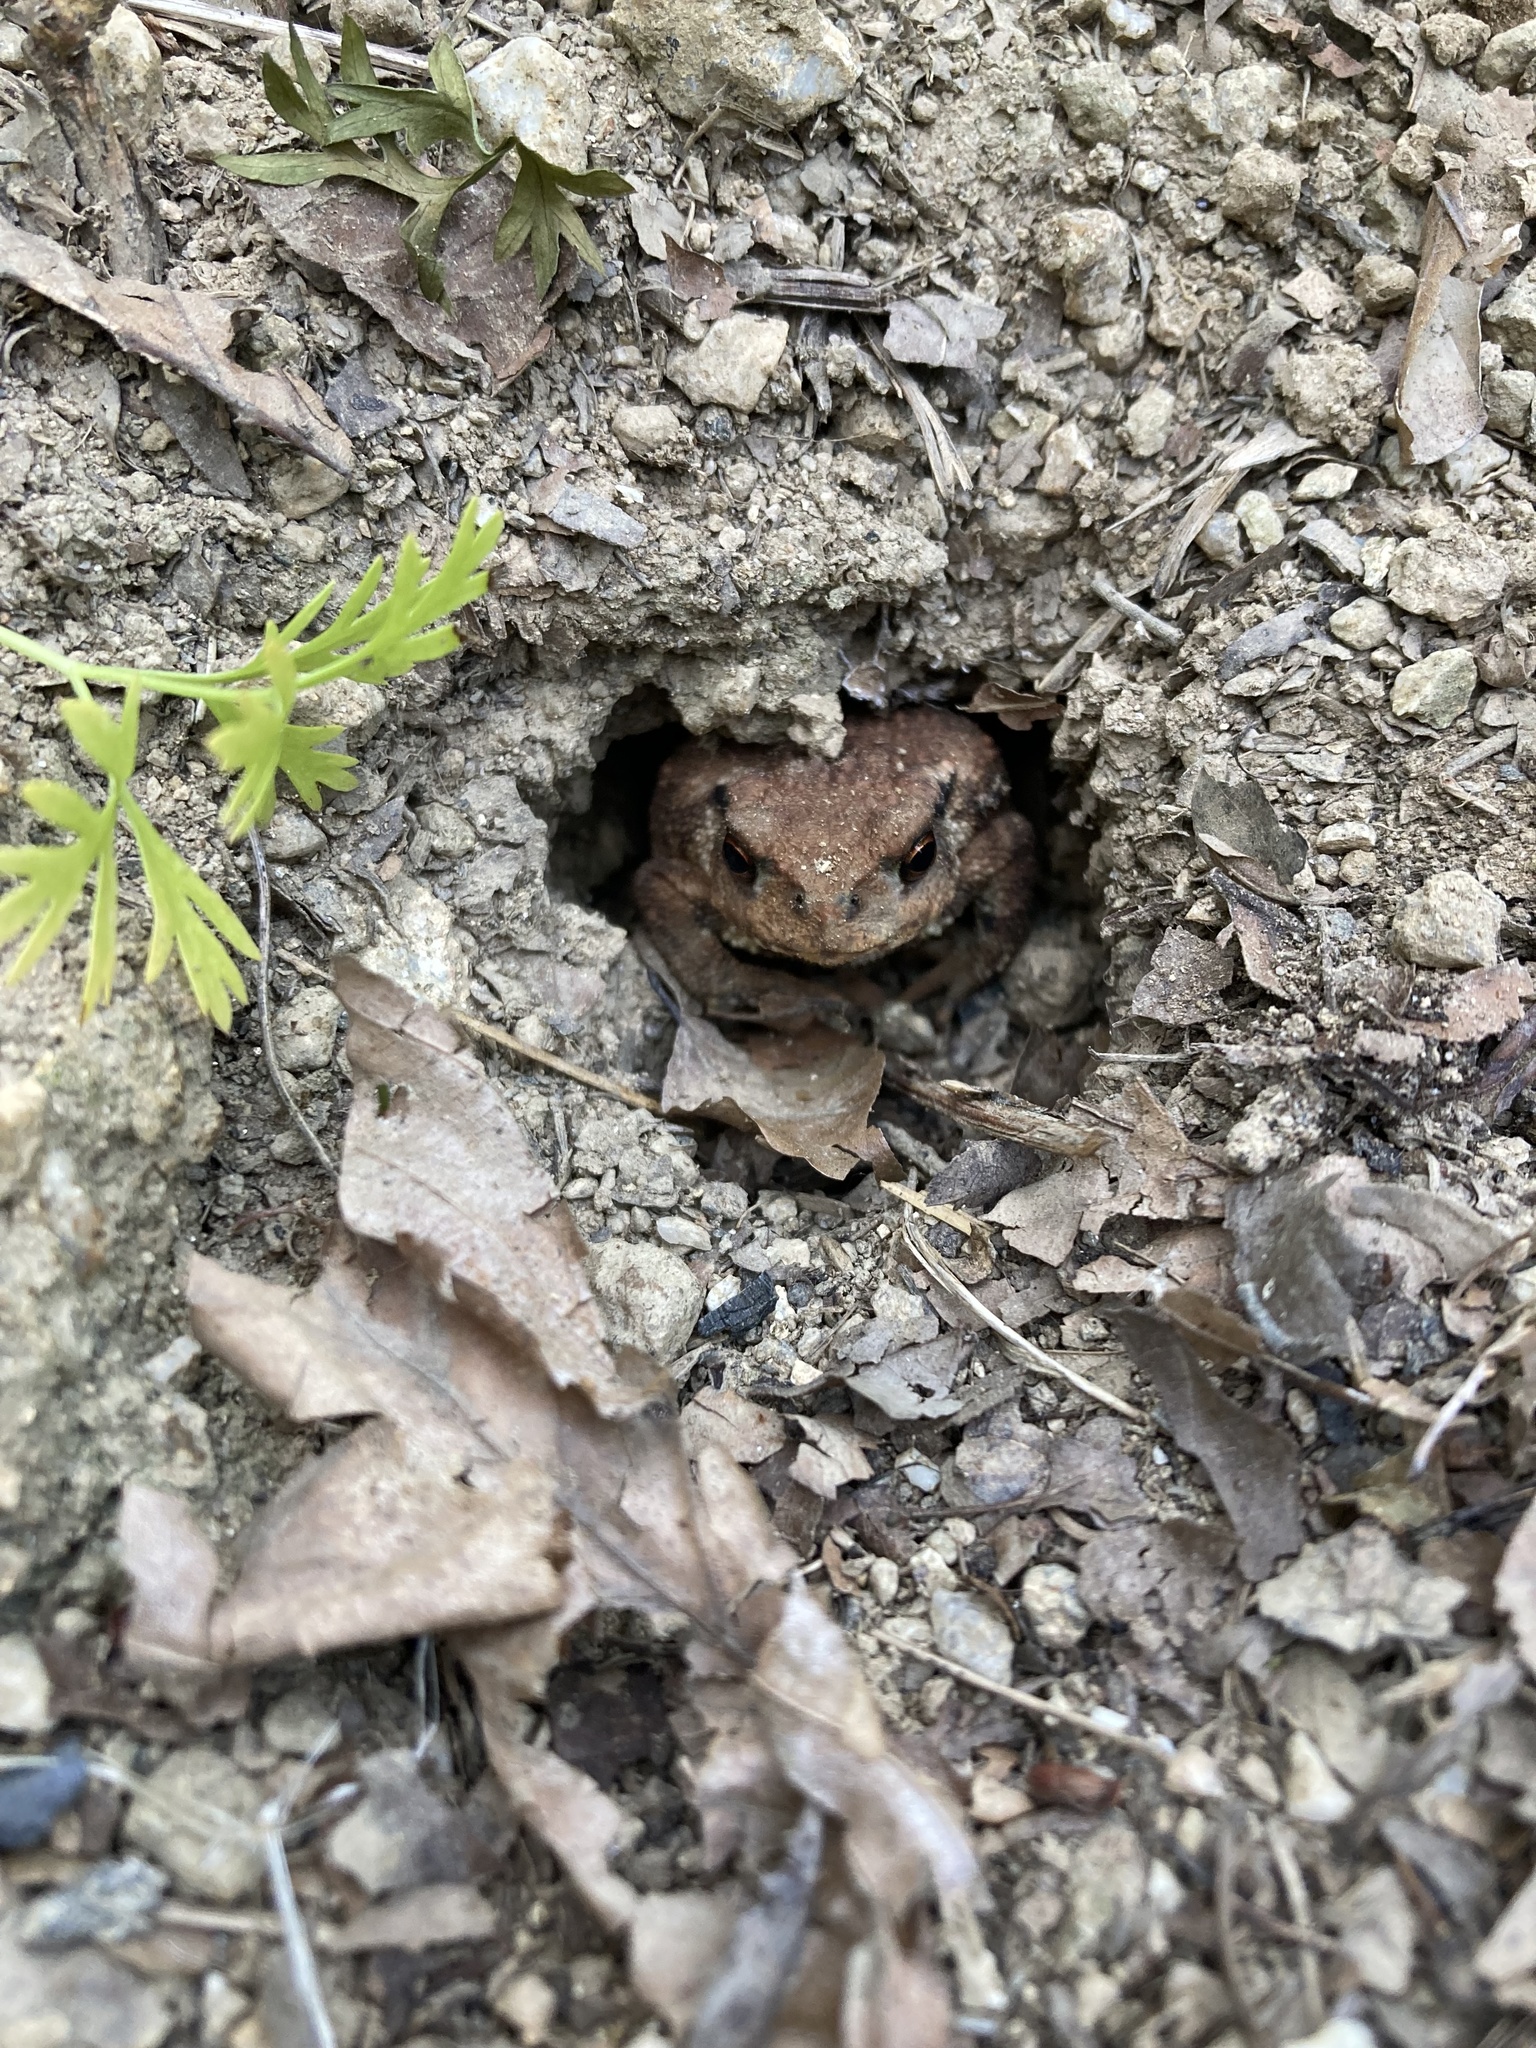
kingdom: Animalia
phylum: Chordata
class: Amphibia
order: Anura
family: Bufonidae
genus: Bufo
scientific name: Bufo spinosus
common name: Western common toad
